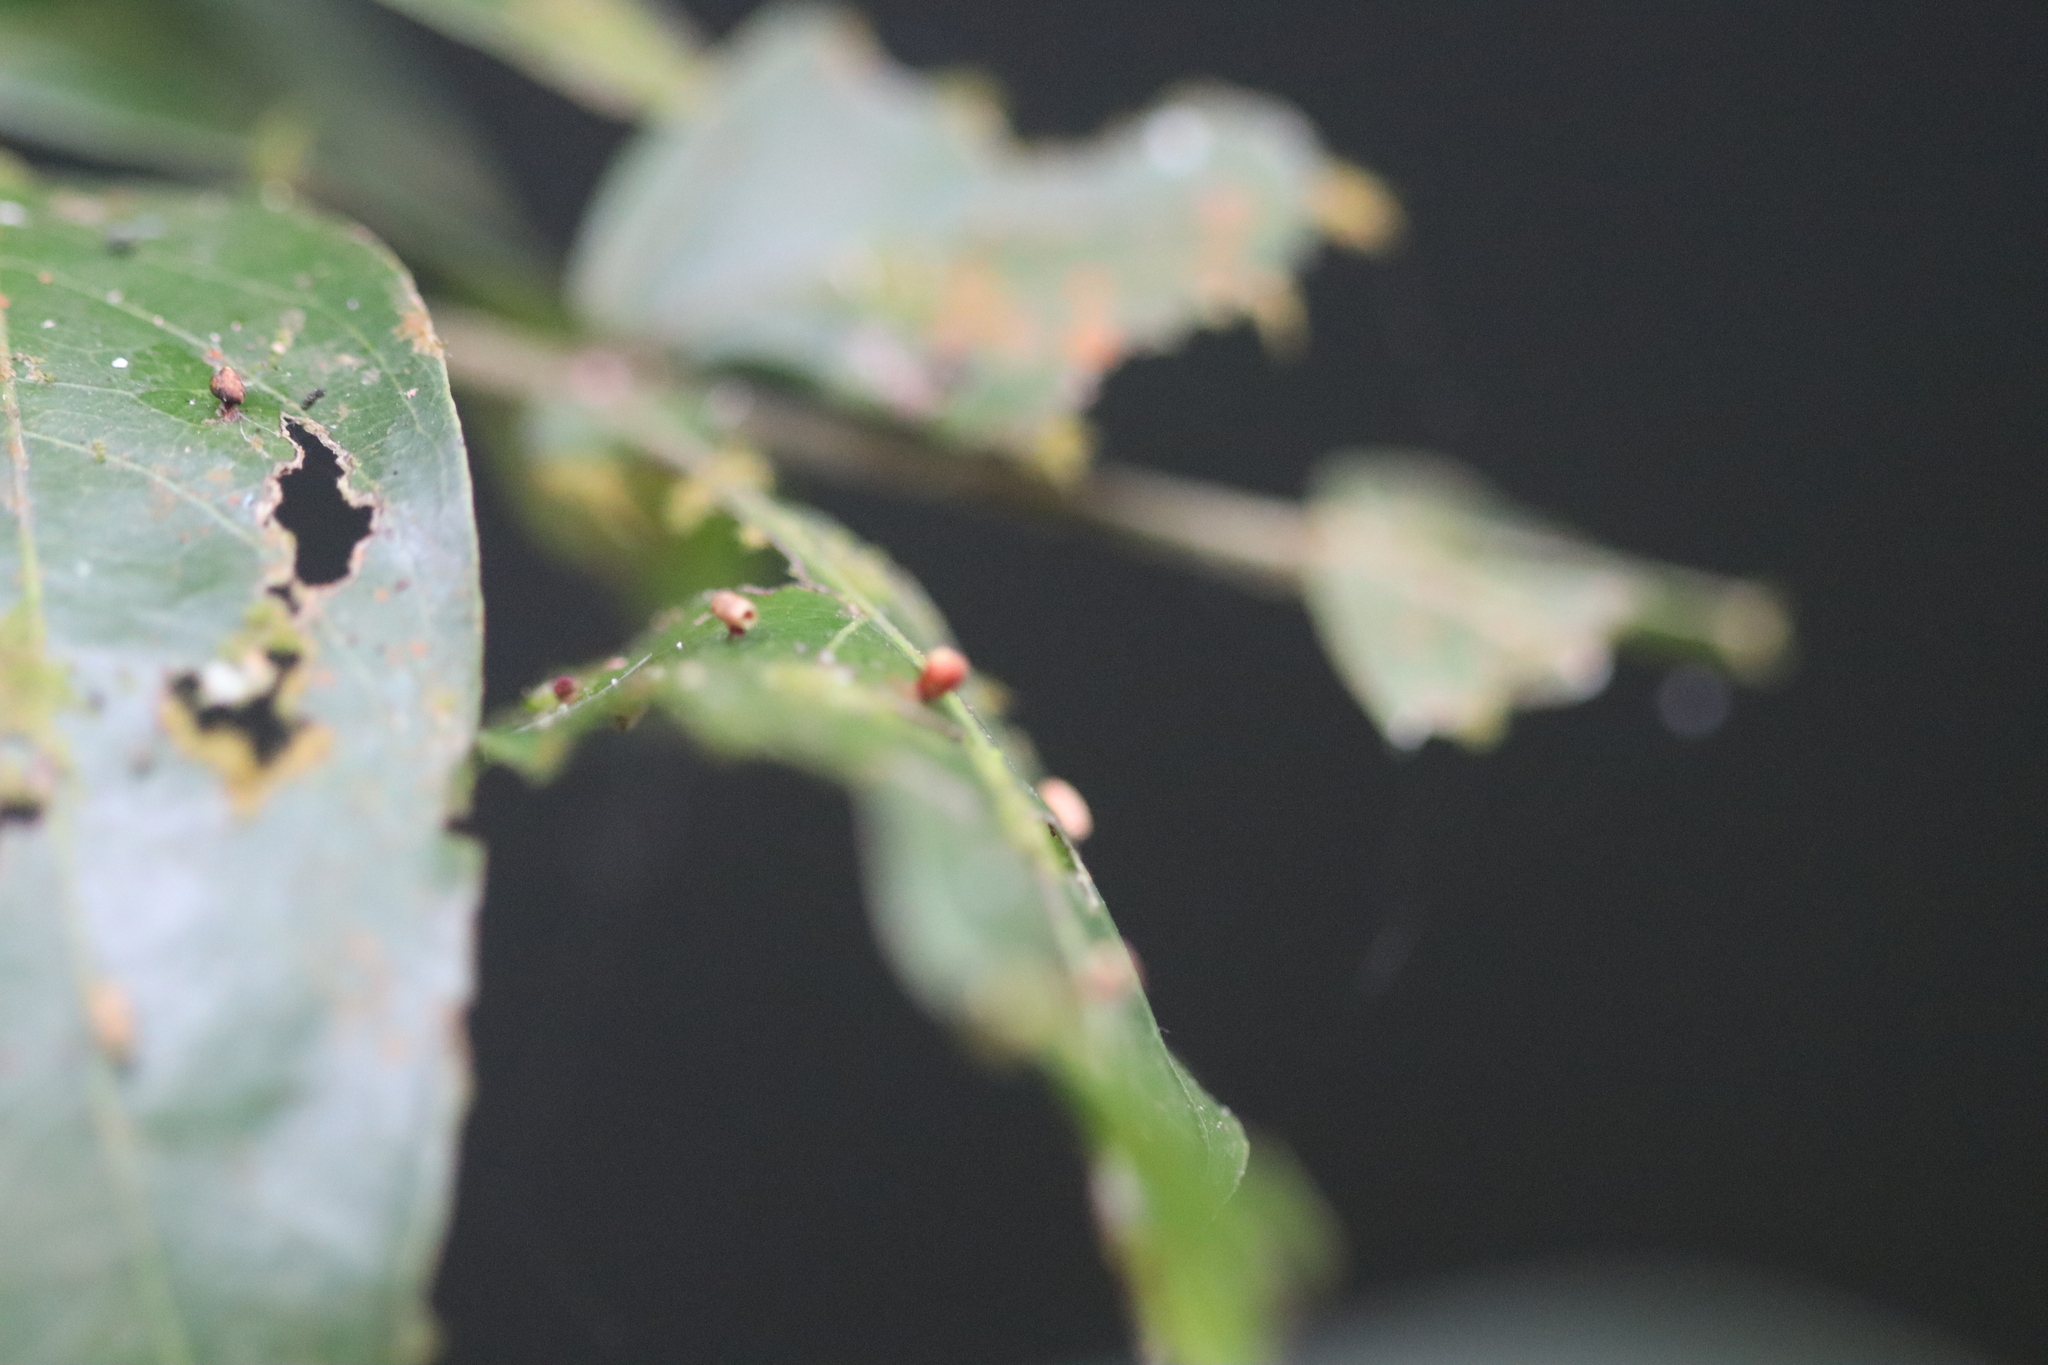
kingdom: Animalia
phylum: Arthropoda
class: Insecta
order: Hymenoptera
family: Cynipidae
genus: Zopheroteras
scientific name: Zopheroteras
